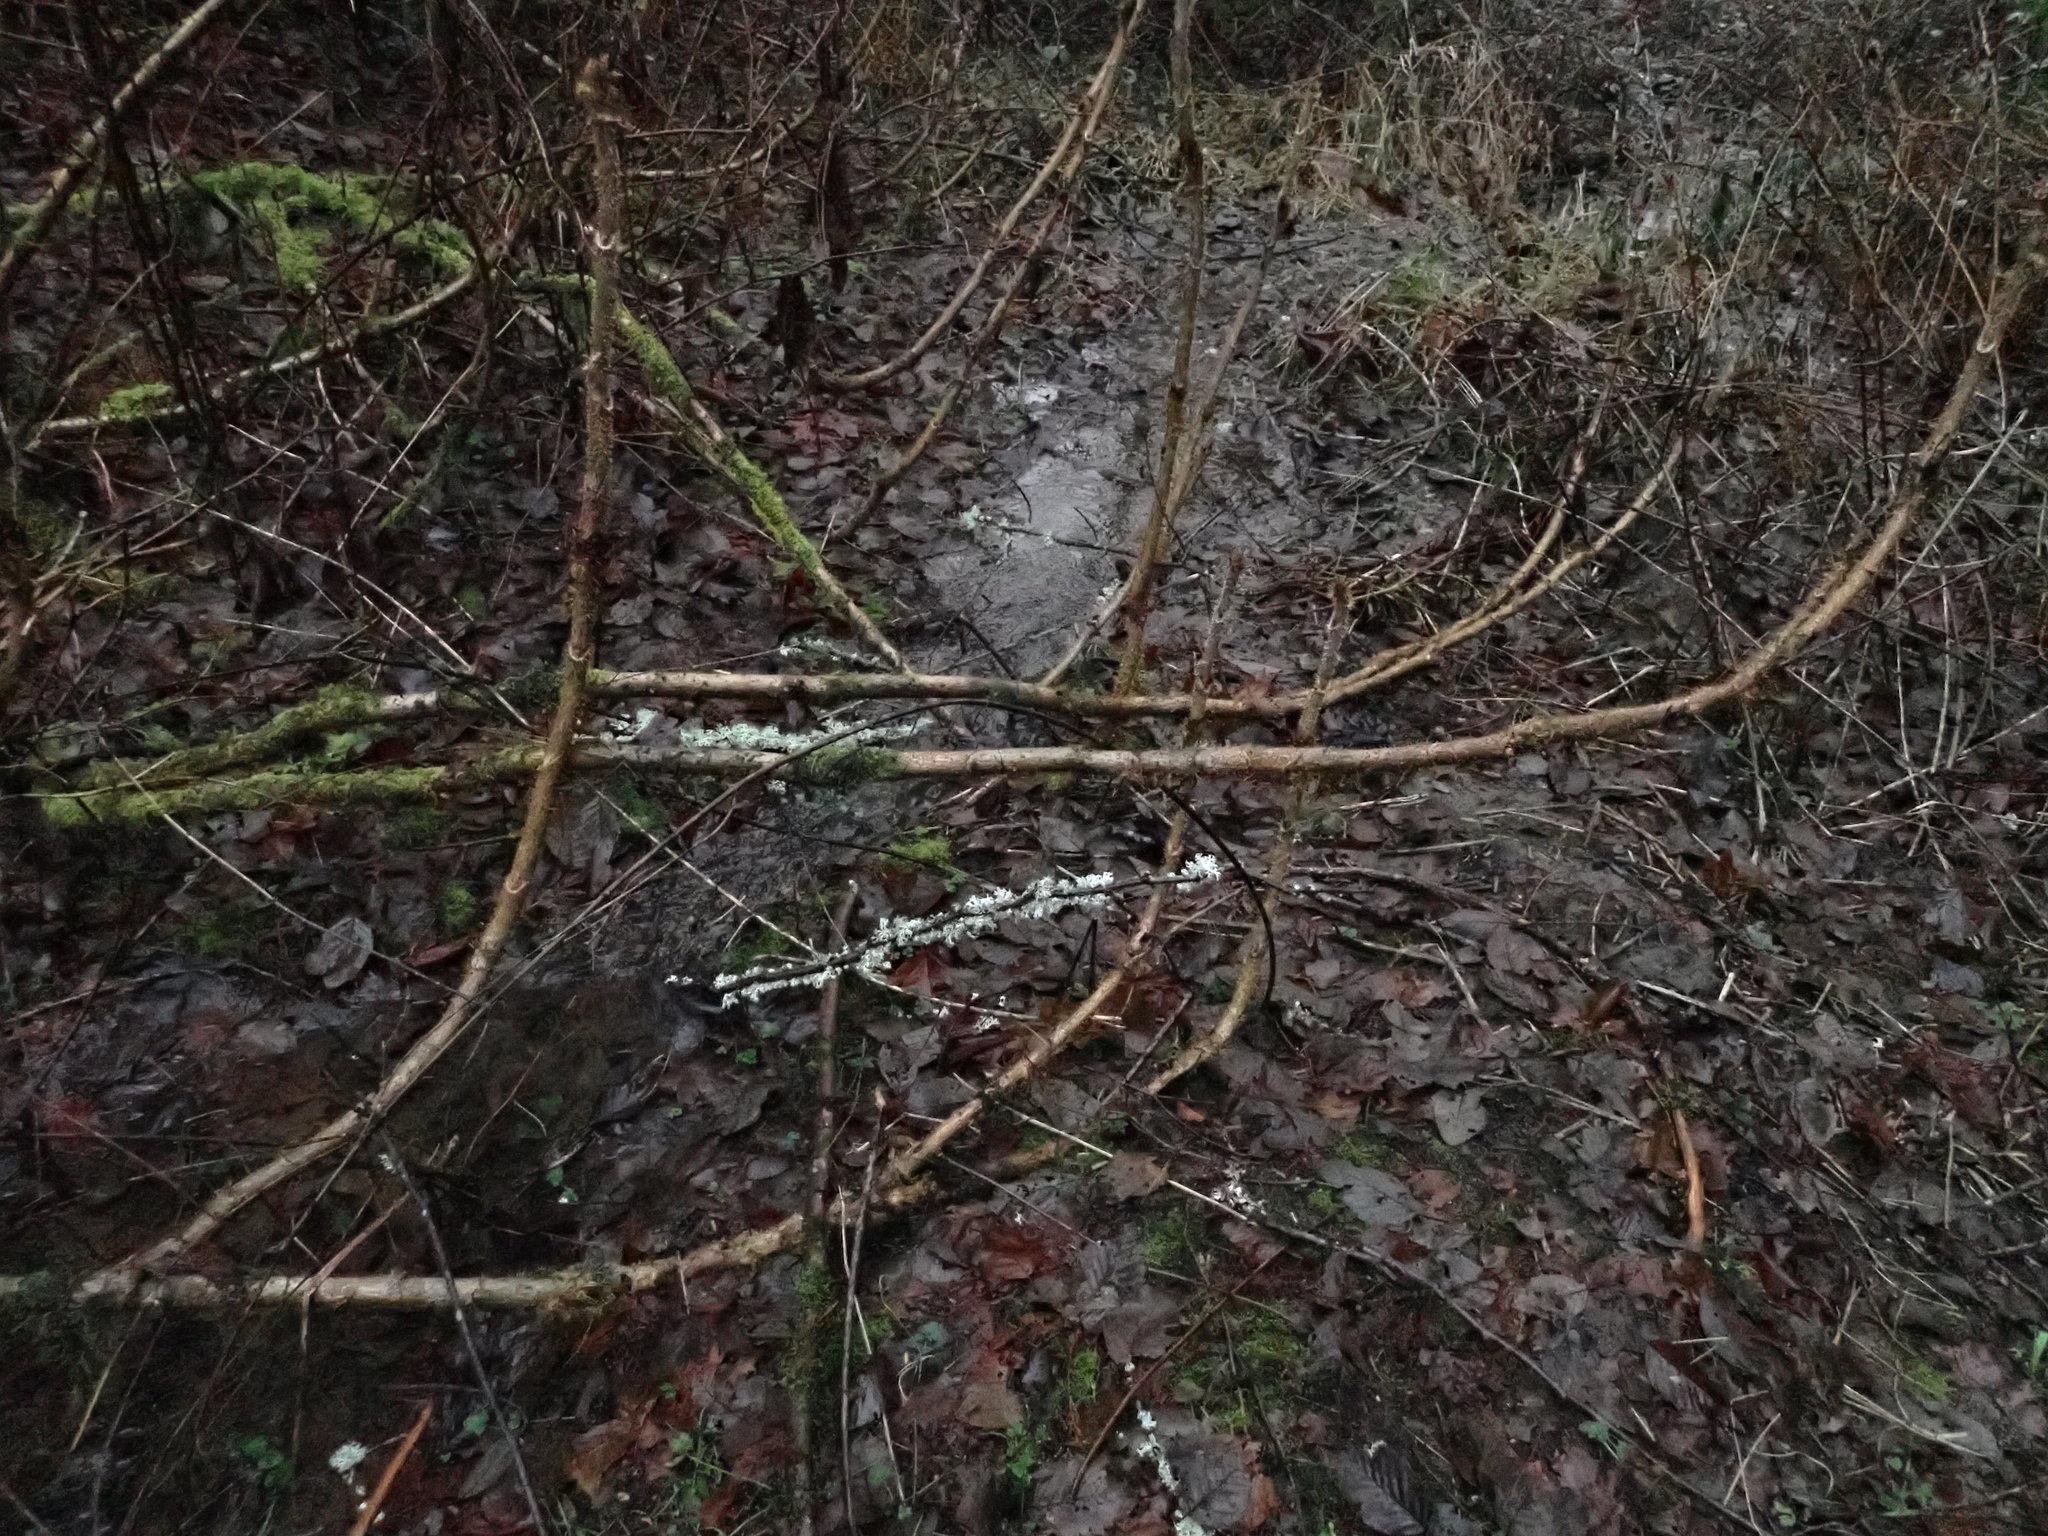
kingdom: Plantae
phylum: Tracheophyta
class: Magnoliopsida
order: Apiales
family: Araliaceae
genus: Oplopanax
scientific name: Oplopanax horridus
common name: Devil's walking-stick
